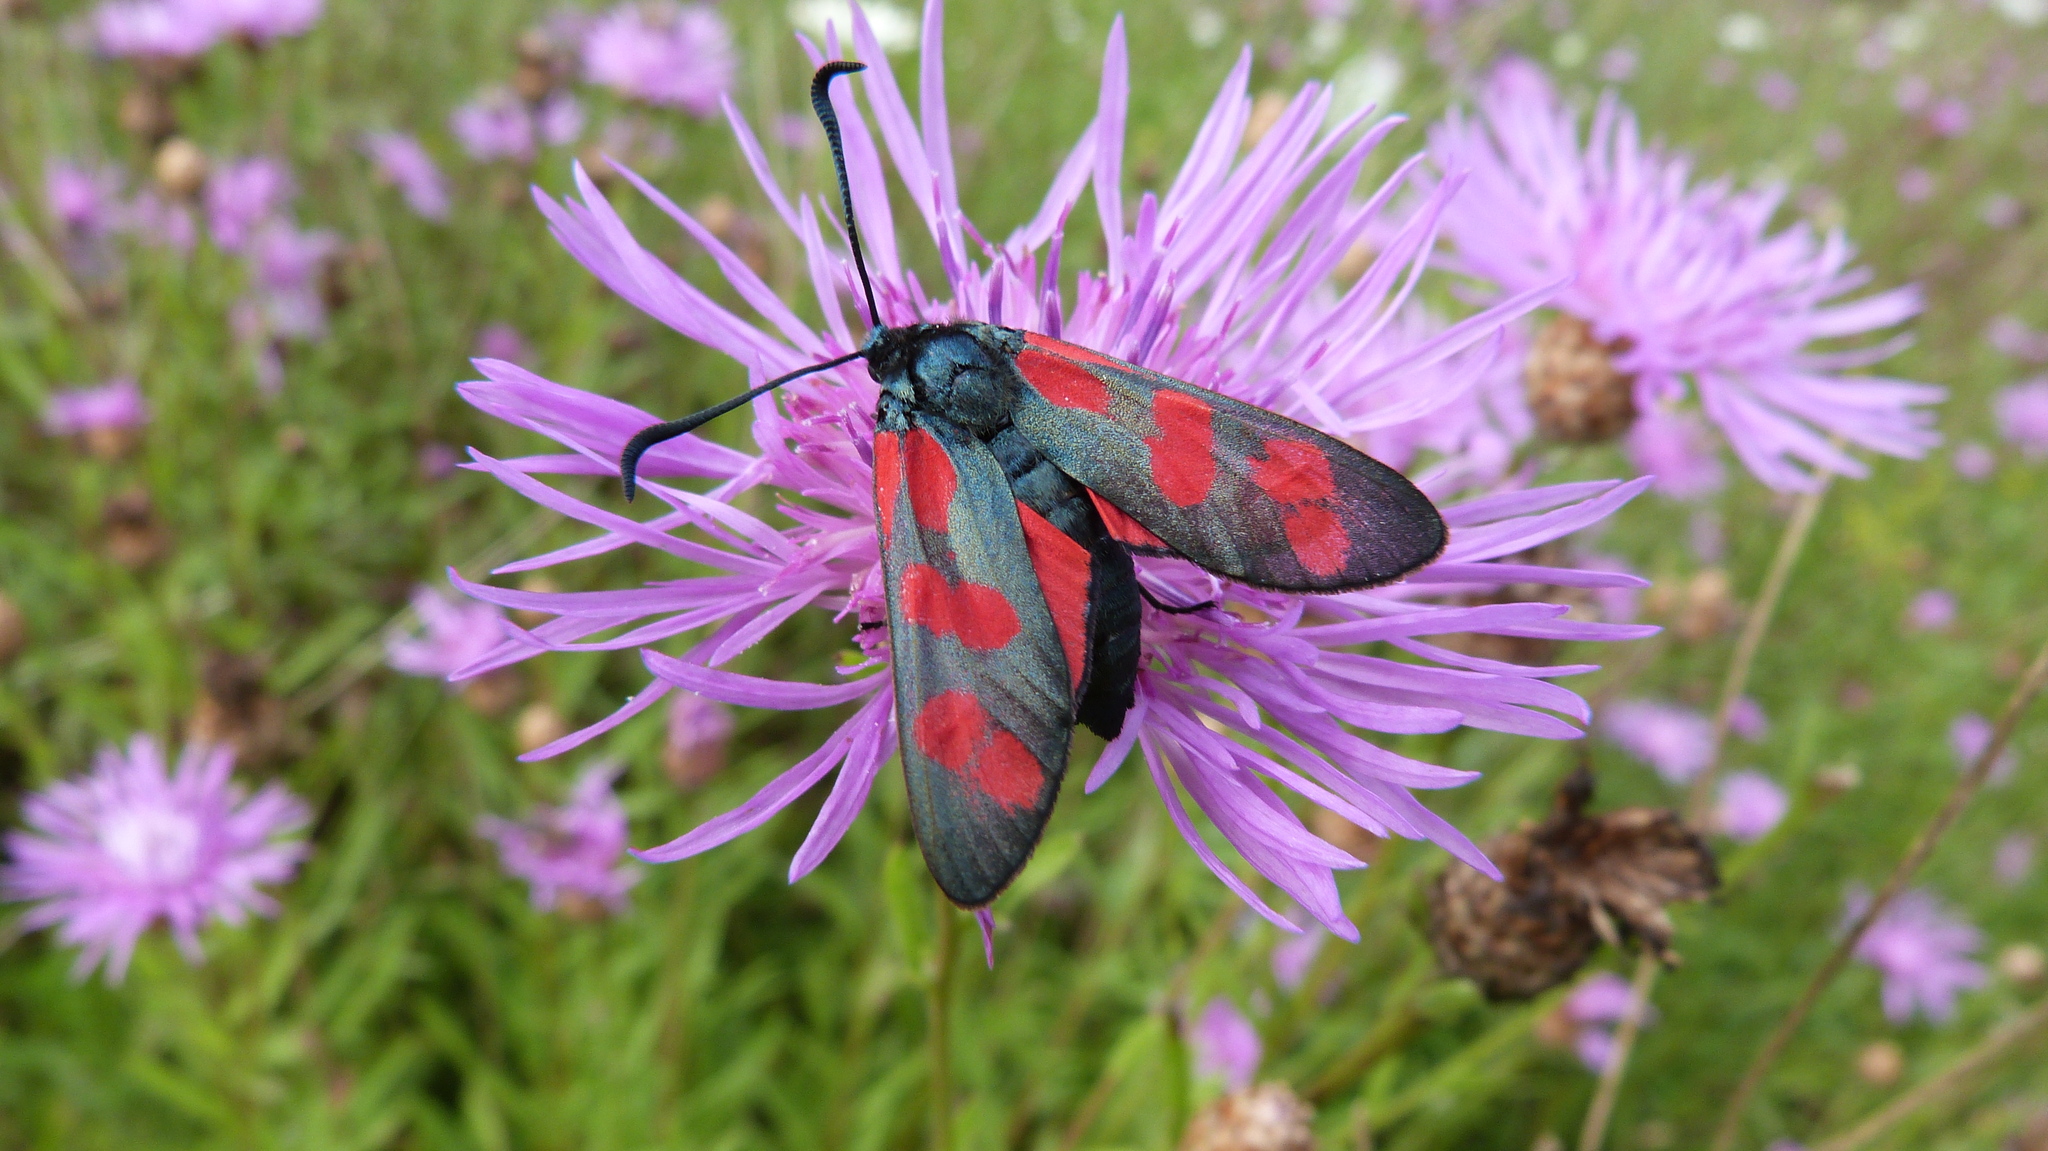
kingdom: Animalia
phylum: Arthropoda
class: Insecta
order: Lepidoptera
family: Zygaenidae
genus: Zygaena
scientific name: Zygaena filipendulae
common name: Six-spot burnet
